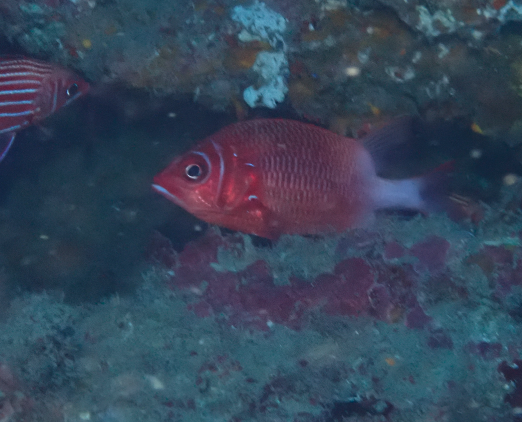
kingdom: Animalia
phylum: Chordata
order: Beryciformes
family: Holocentridae
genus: Sargocentron
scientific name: Sargocentron caudimaculatum
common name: Fanfin soldier
